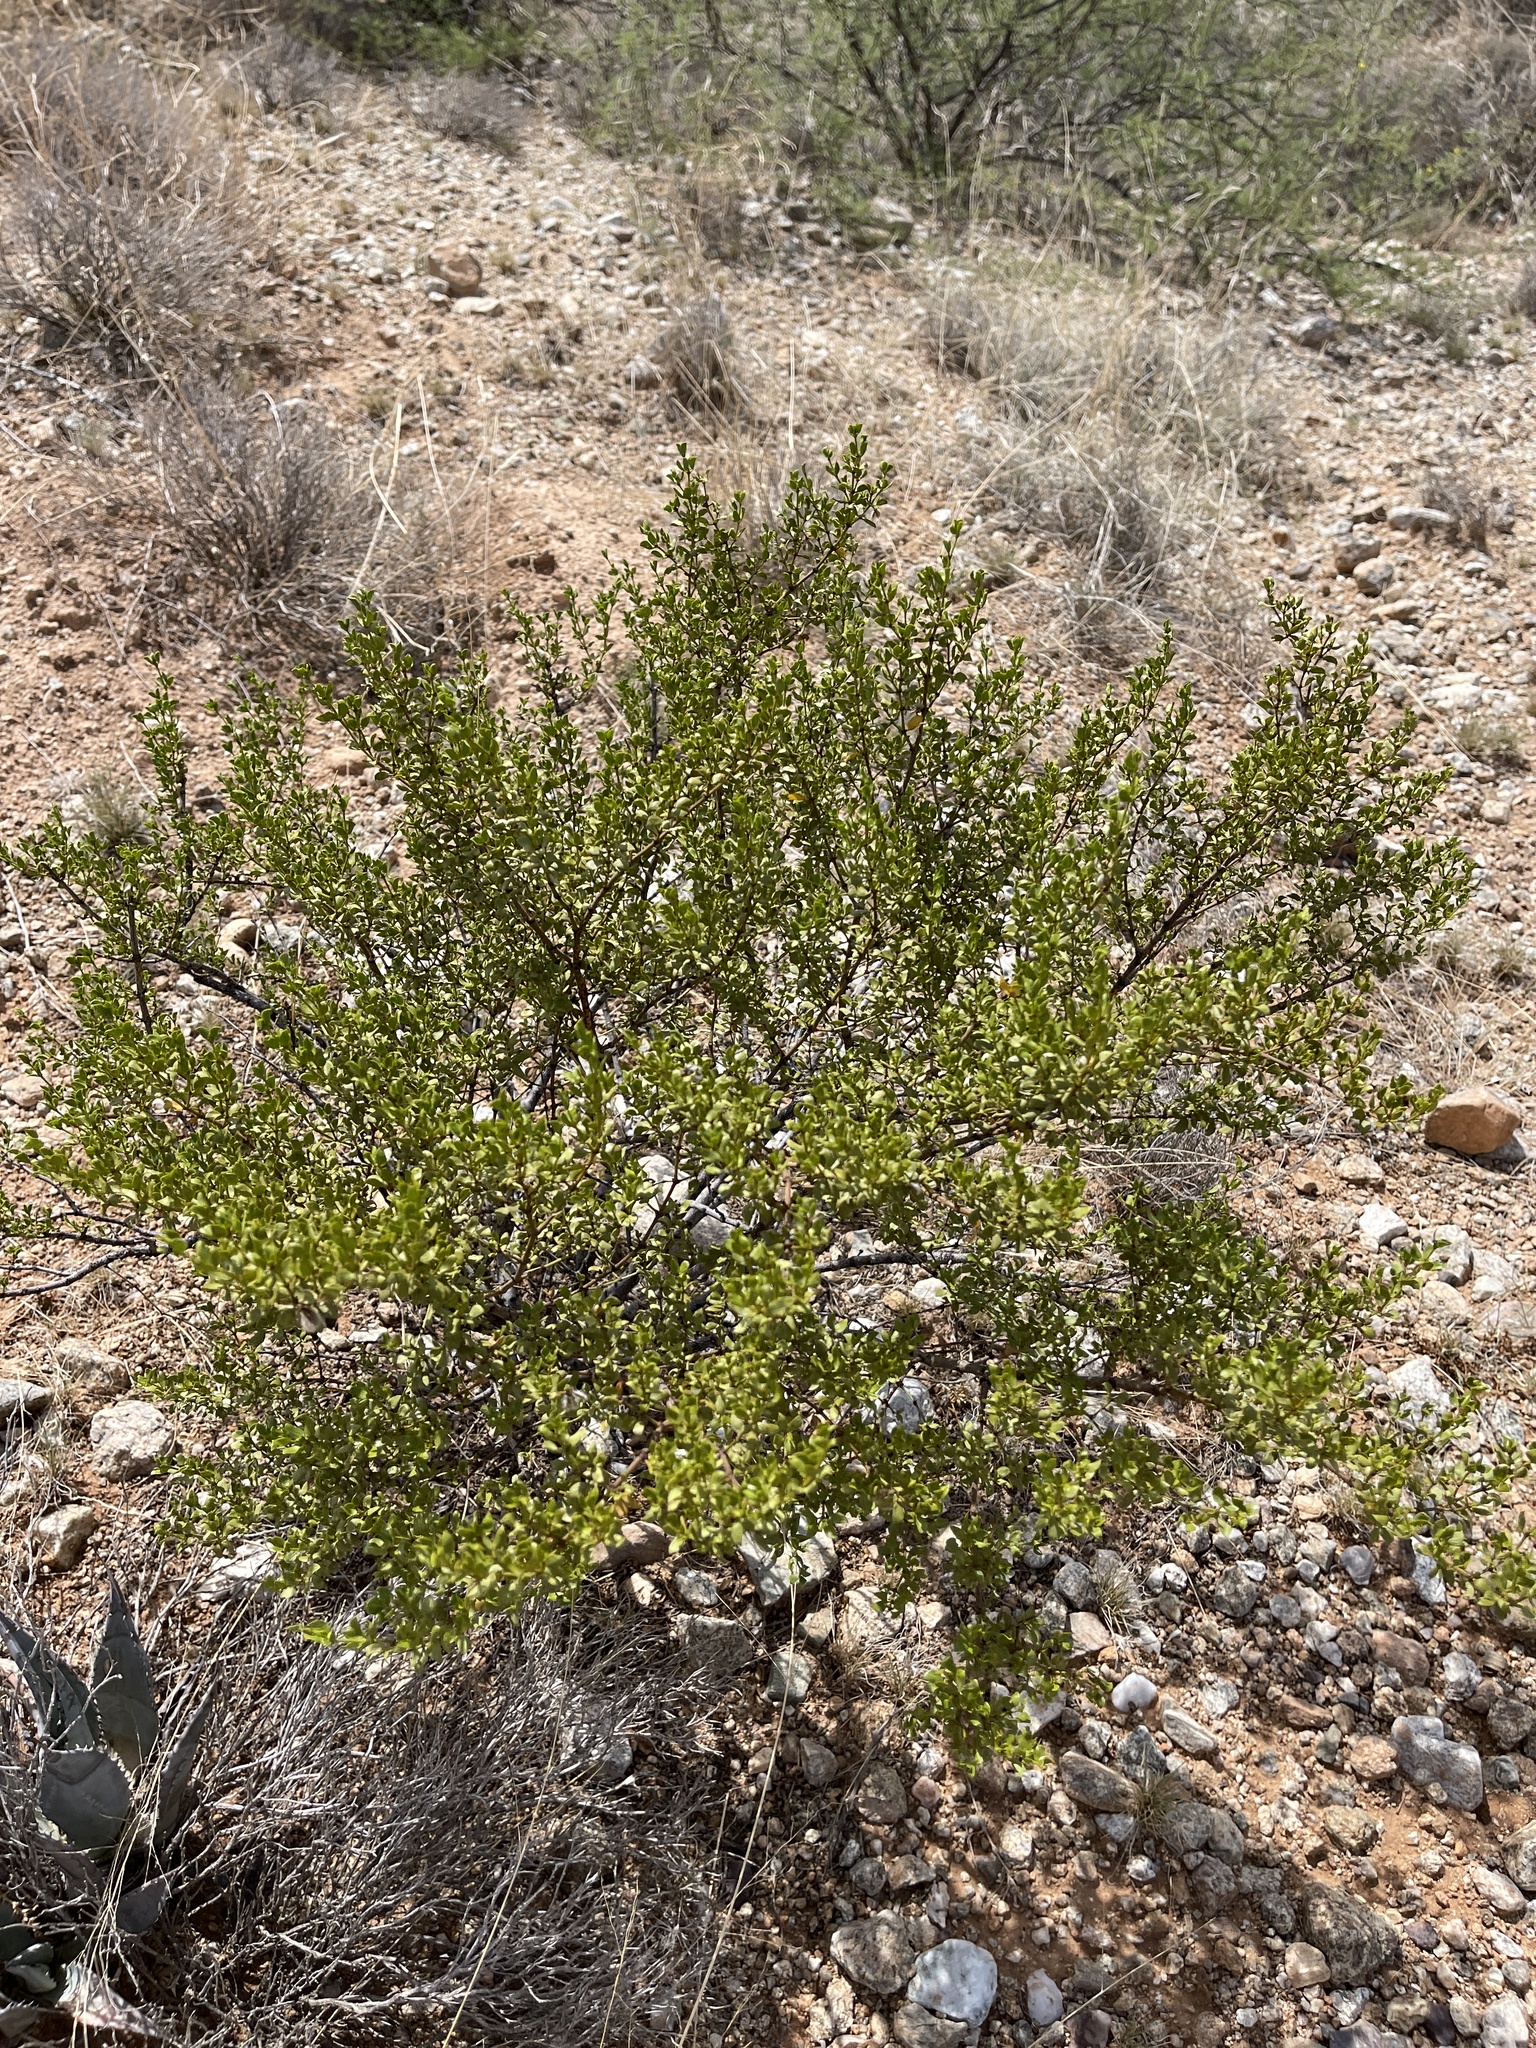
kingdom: Plantae
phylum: Tracheophyta
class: Magnoliopsida
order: Zygophyllales
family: Zygophyllaceae
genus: Larrea
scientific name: Larrea tridentata
